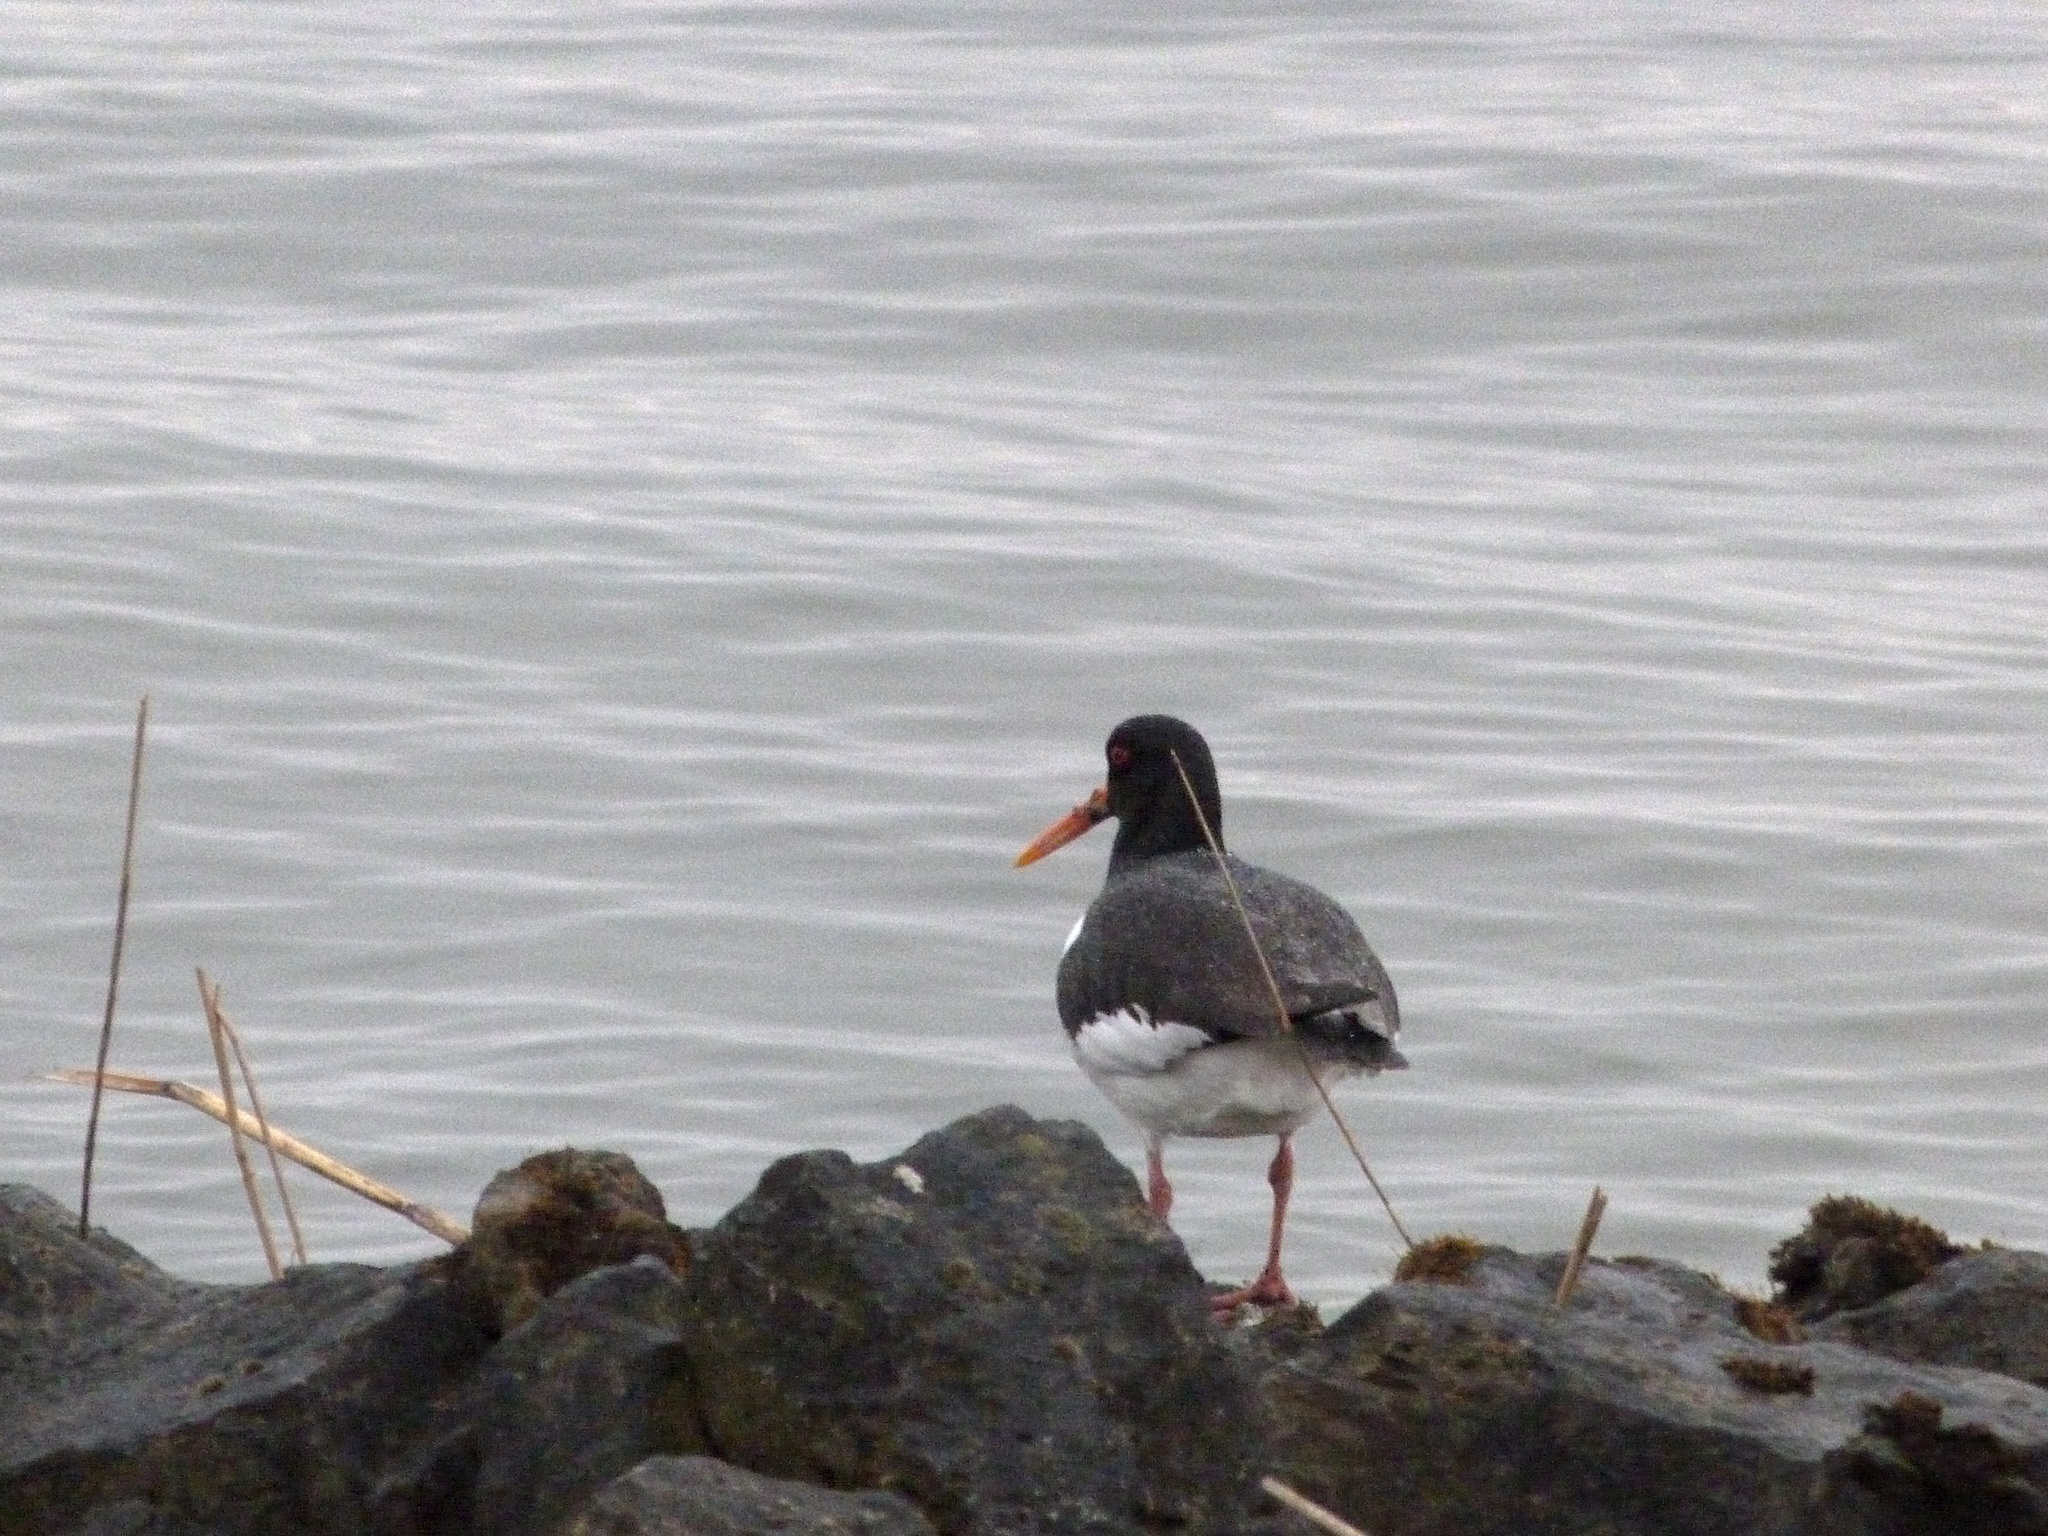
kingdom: Animalia
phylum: Chordata
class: Aves
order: Charadriiformes
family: Haematopodidae
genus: Haematopus
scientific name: Haematopus ostralegus
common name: Eurasian oystercatcher
